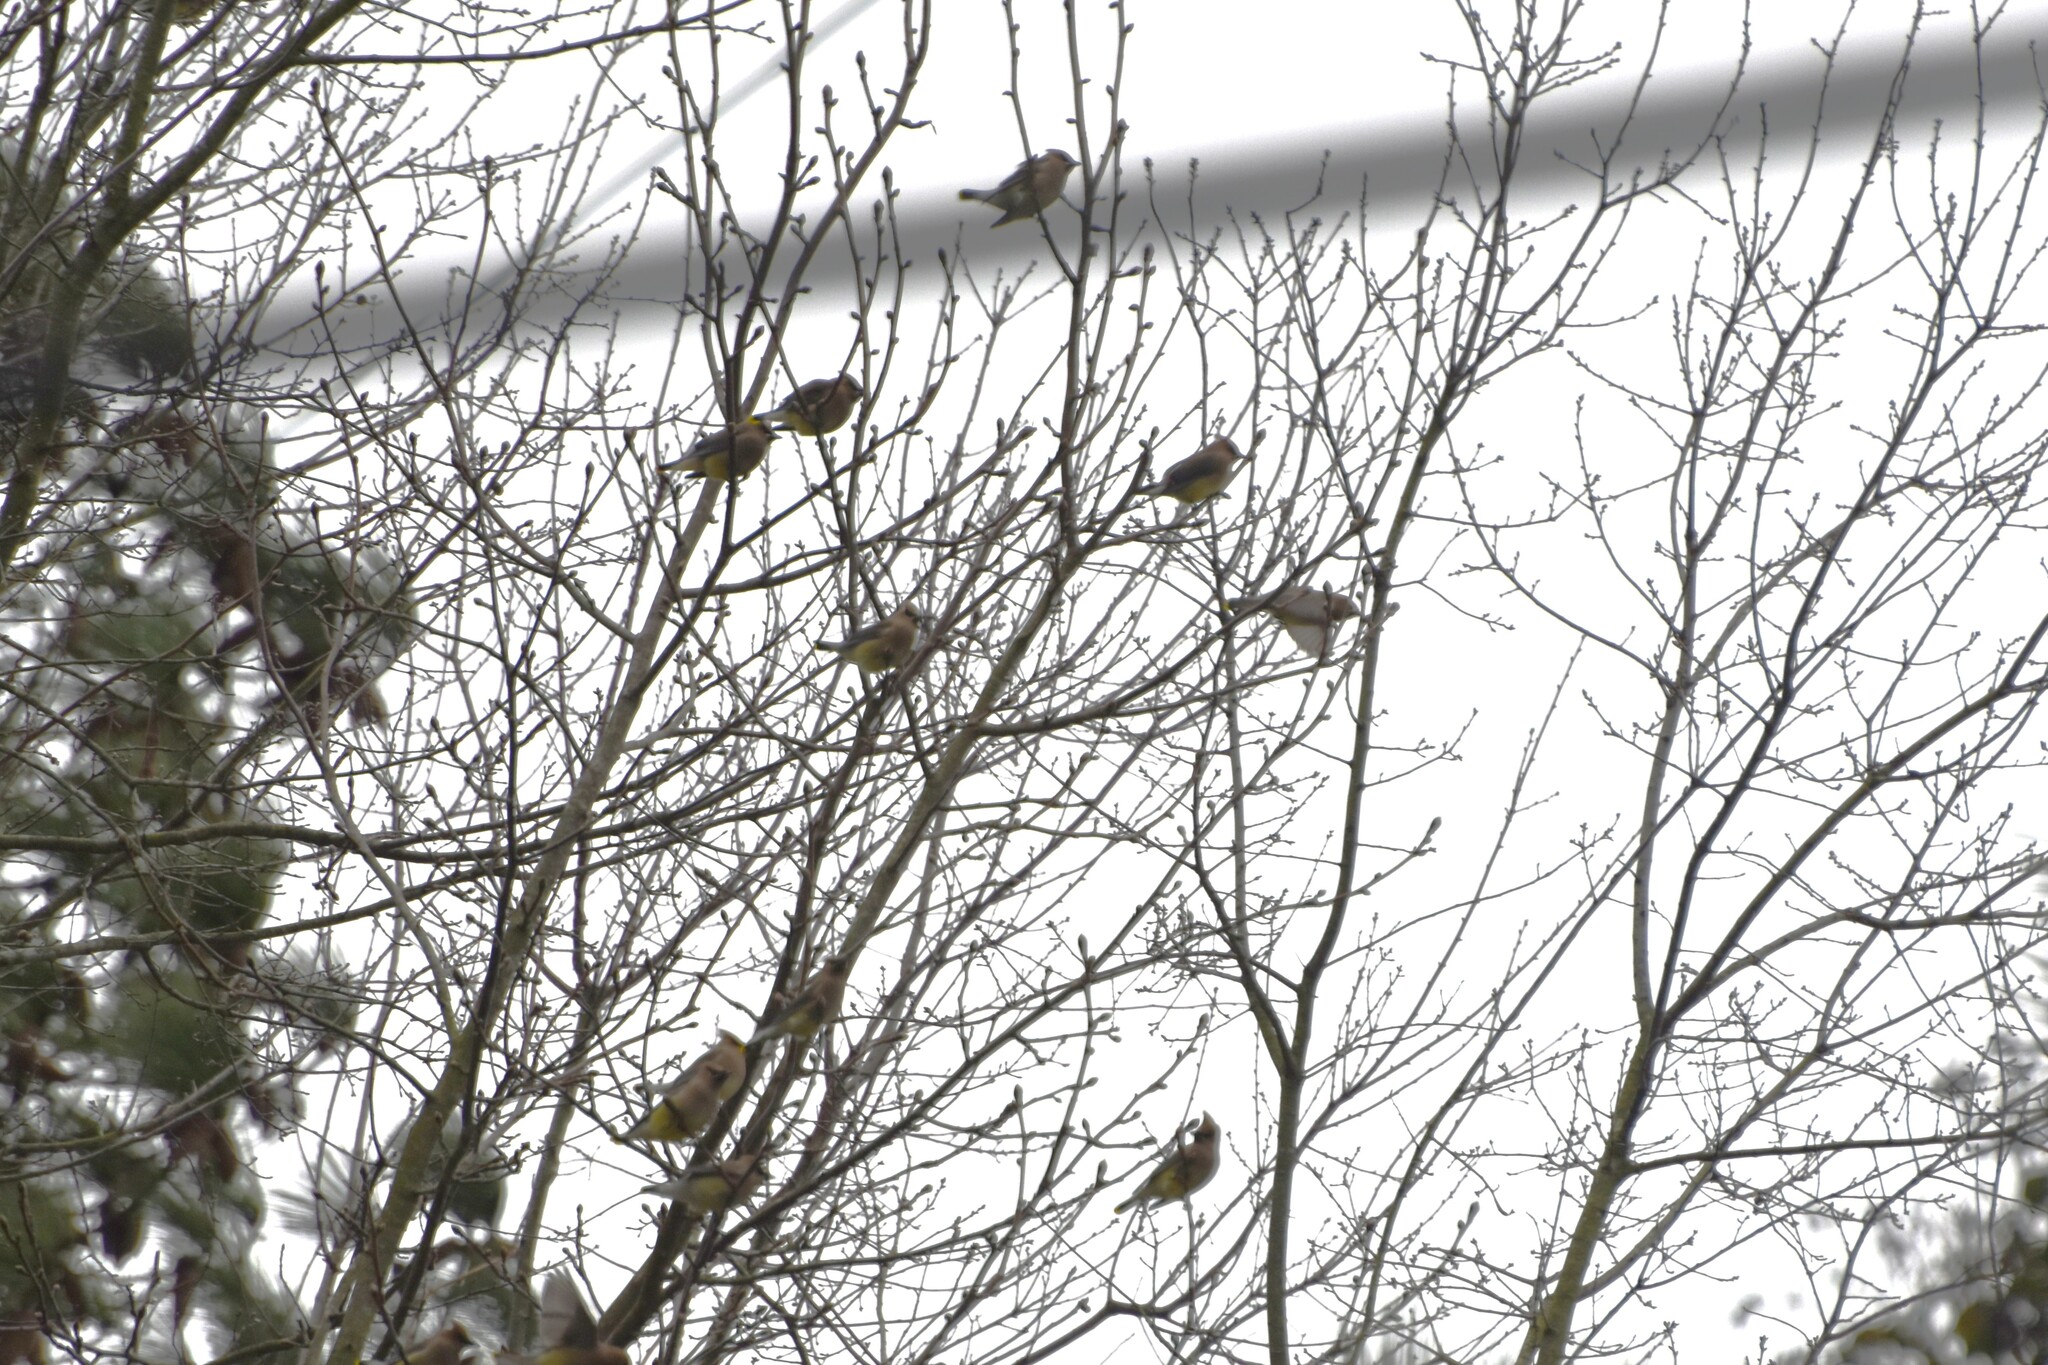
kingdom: Animalia
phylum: Chordata
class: Aves
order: Passeriformes
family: Bombycillidae
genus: Bombycilla
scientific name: Bombycilla cedrorum
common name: Cedar waxwing
